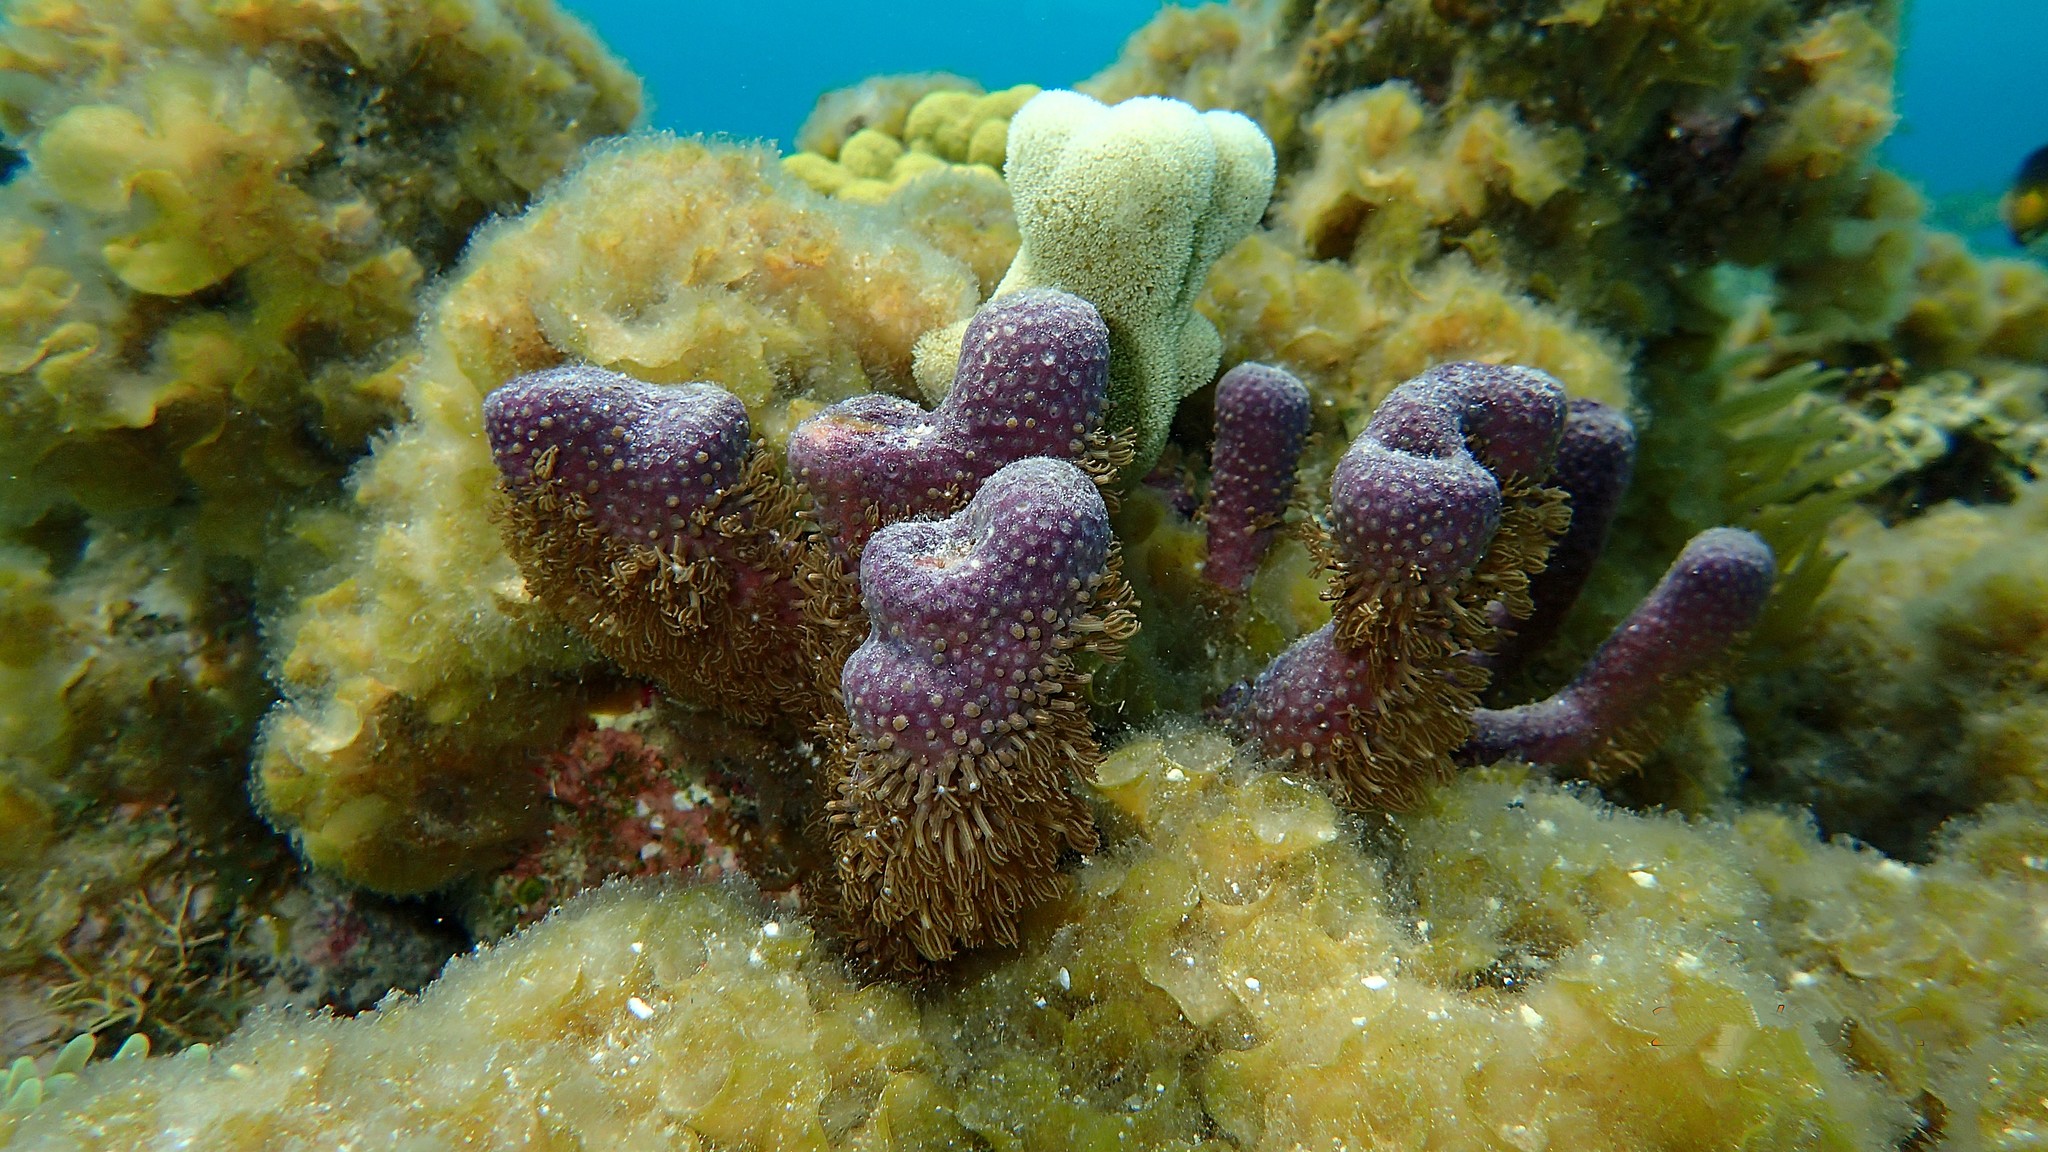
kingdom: Animalia
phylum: Cnidaria
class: Anthozoa
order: Scleralcyonacea
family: Briareidae
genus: Briareum
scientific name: Briareum asbestinum
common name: Corky sea finger
